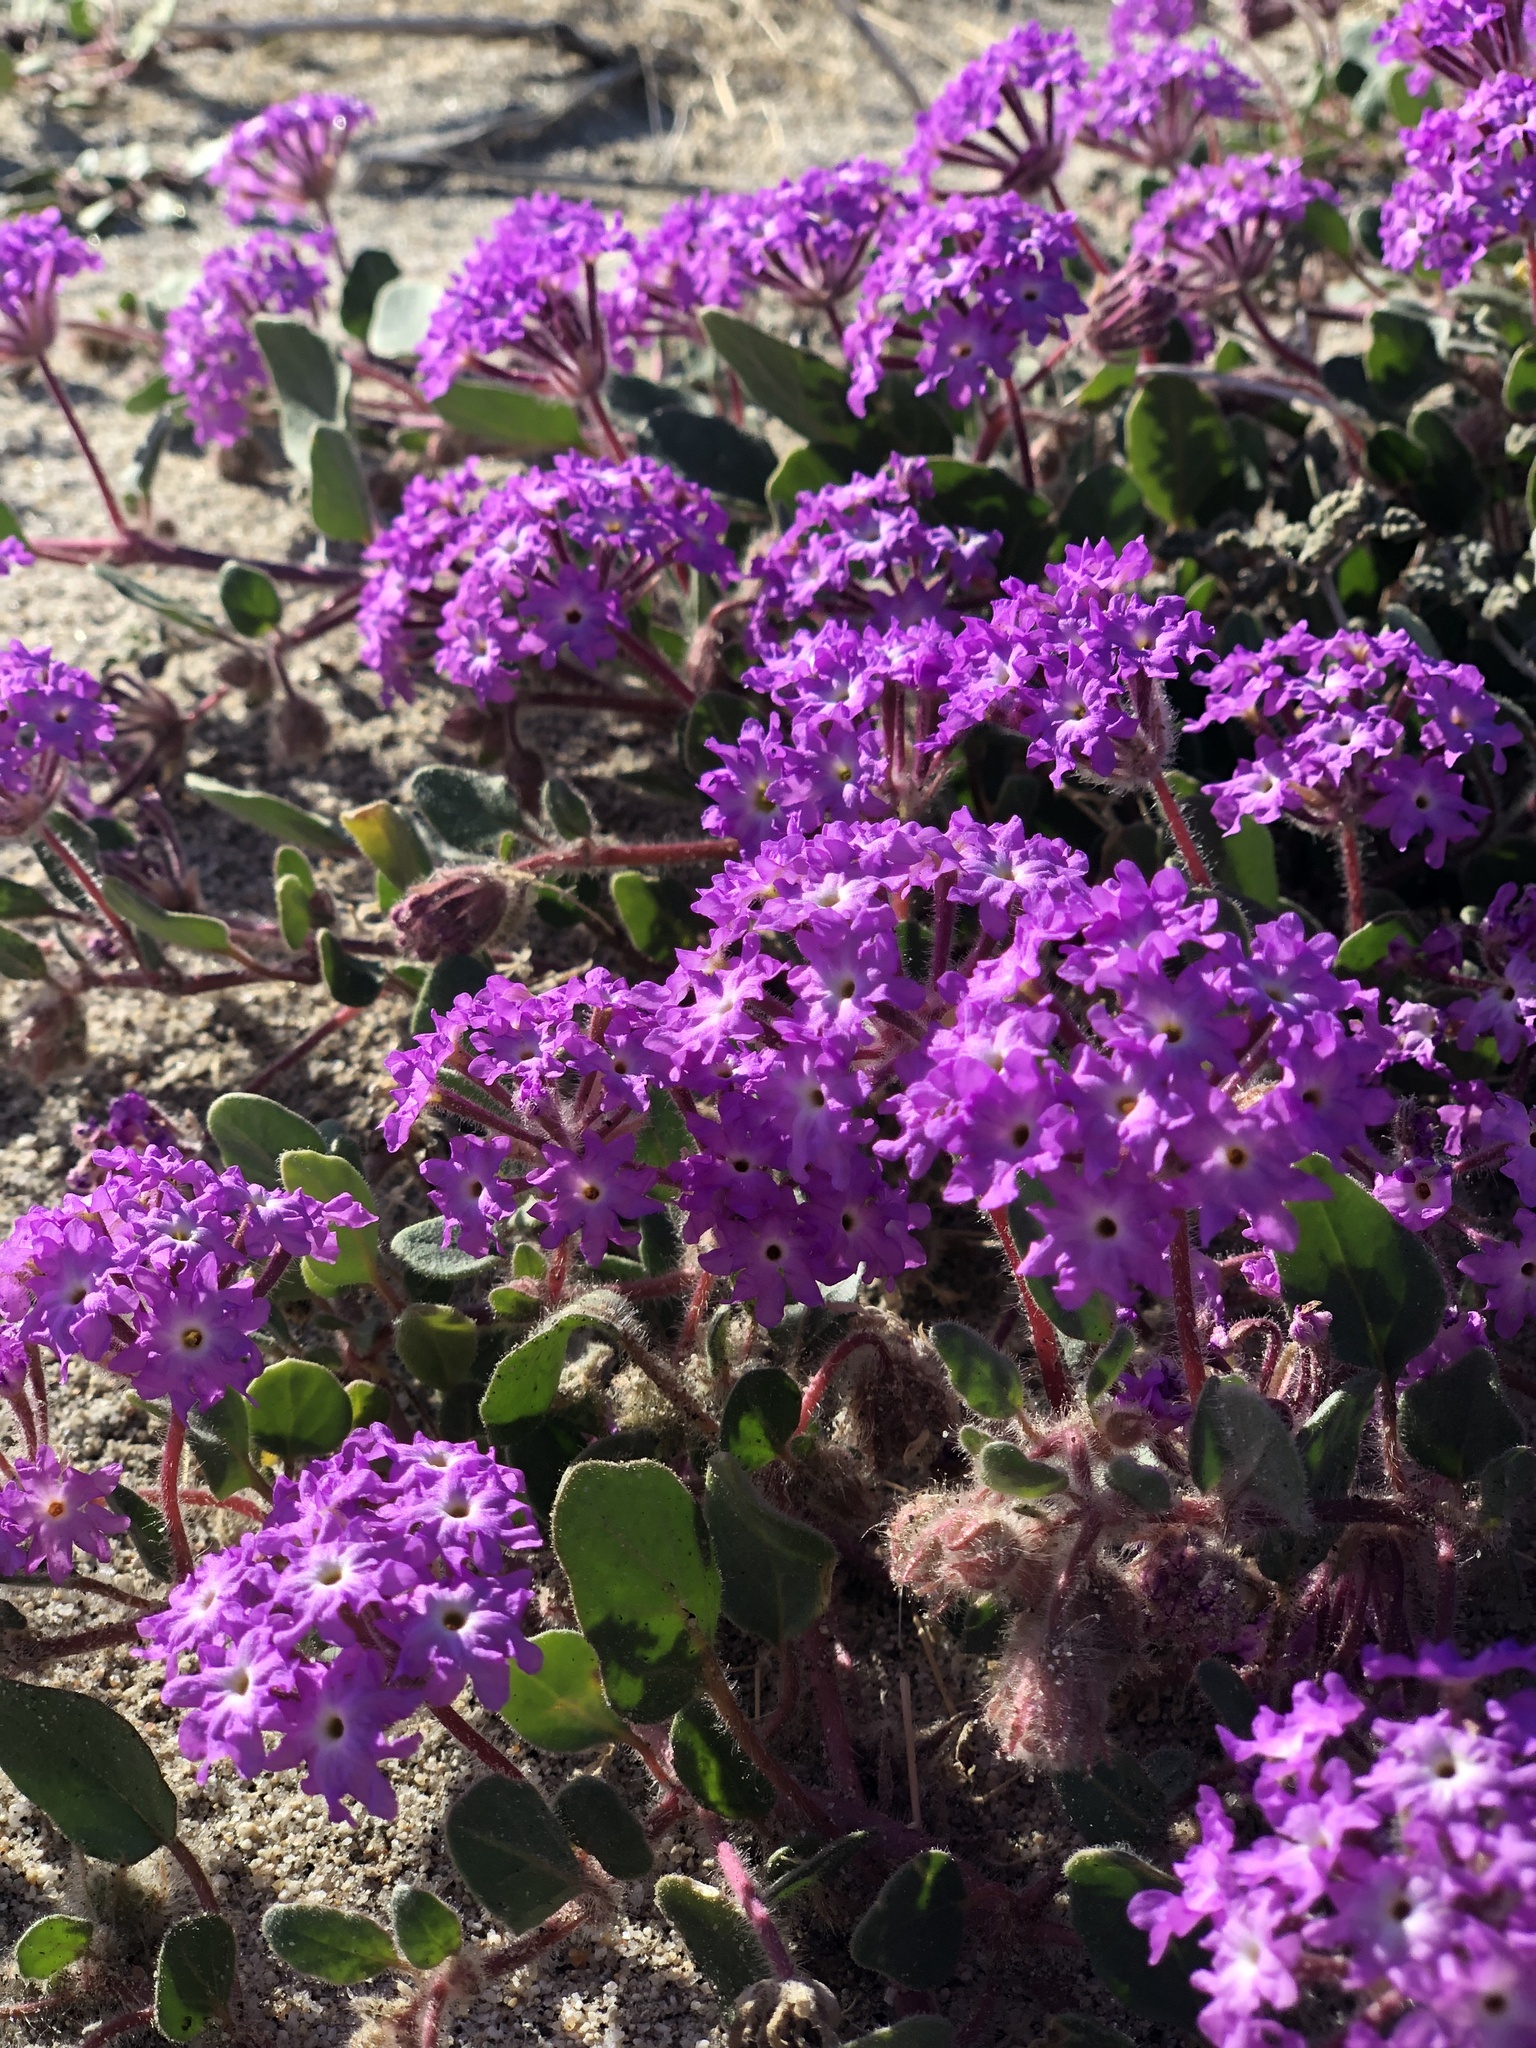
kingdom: Plantae
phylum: Tracheophyta
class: Magnoliopsida
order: Caryophyllales
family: Nyctaginaceae
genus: Abronia
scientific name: Abronia villosa
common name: Desert sand-verbena
